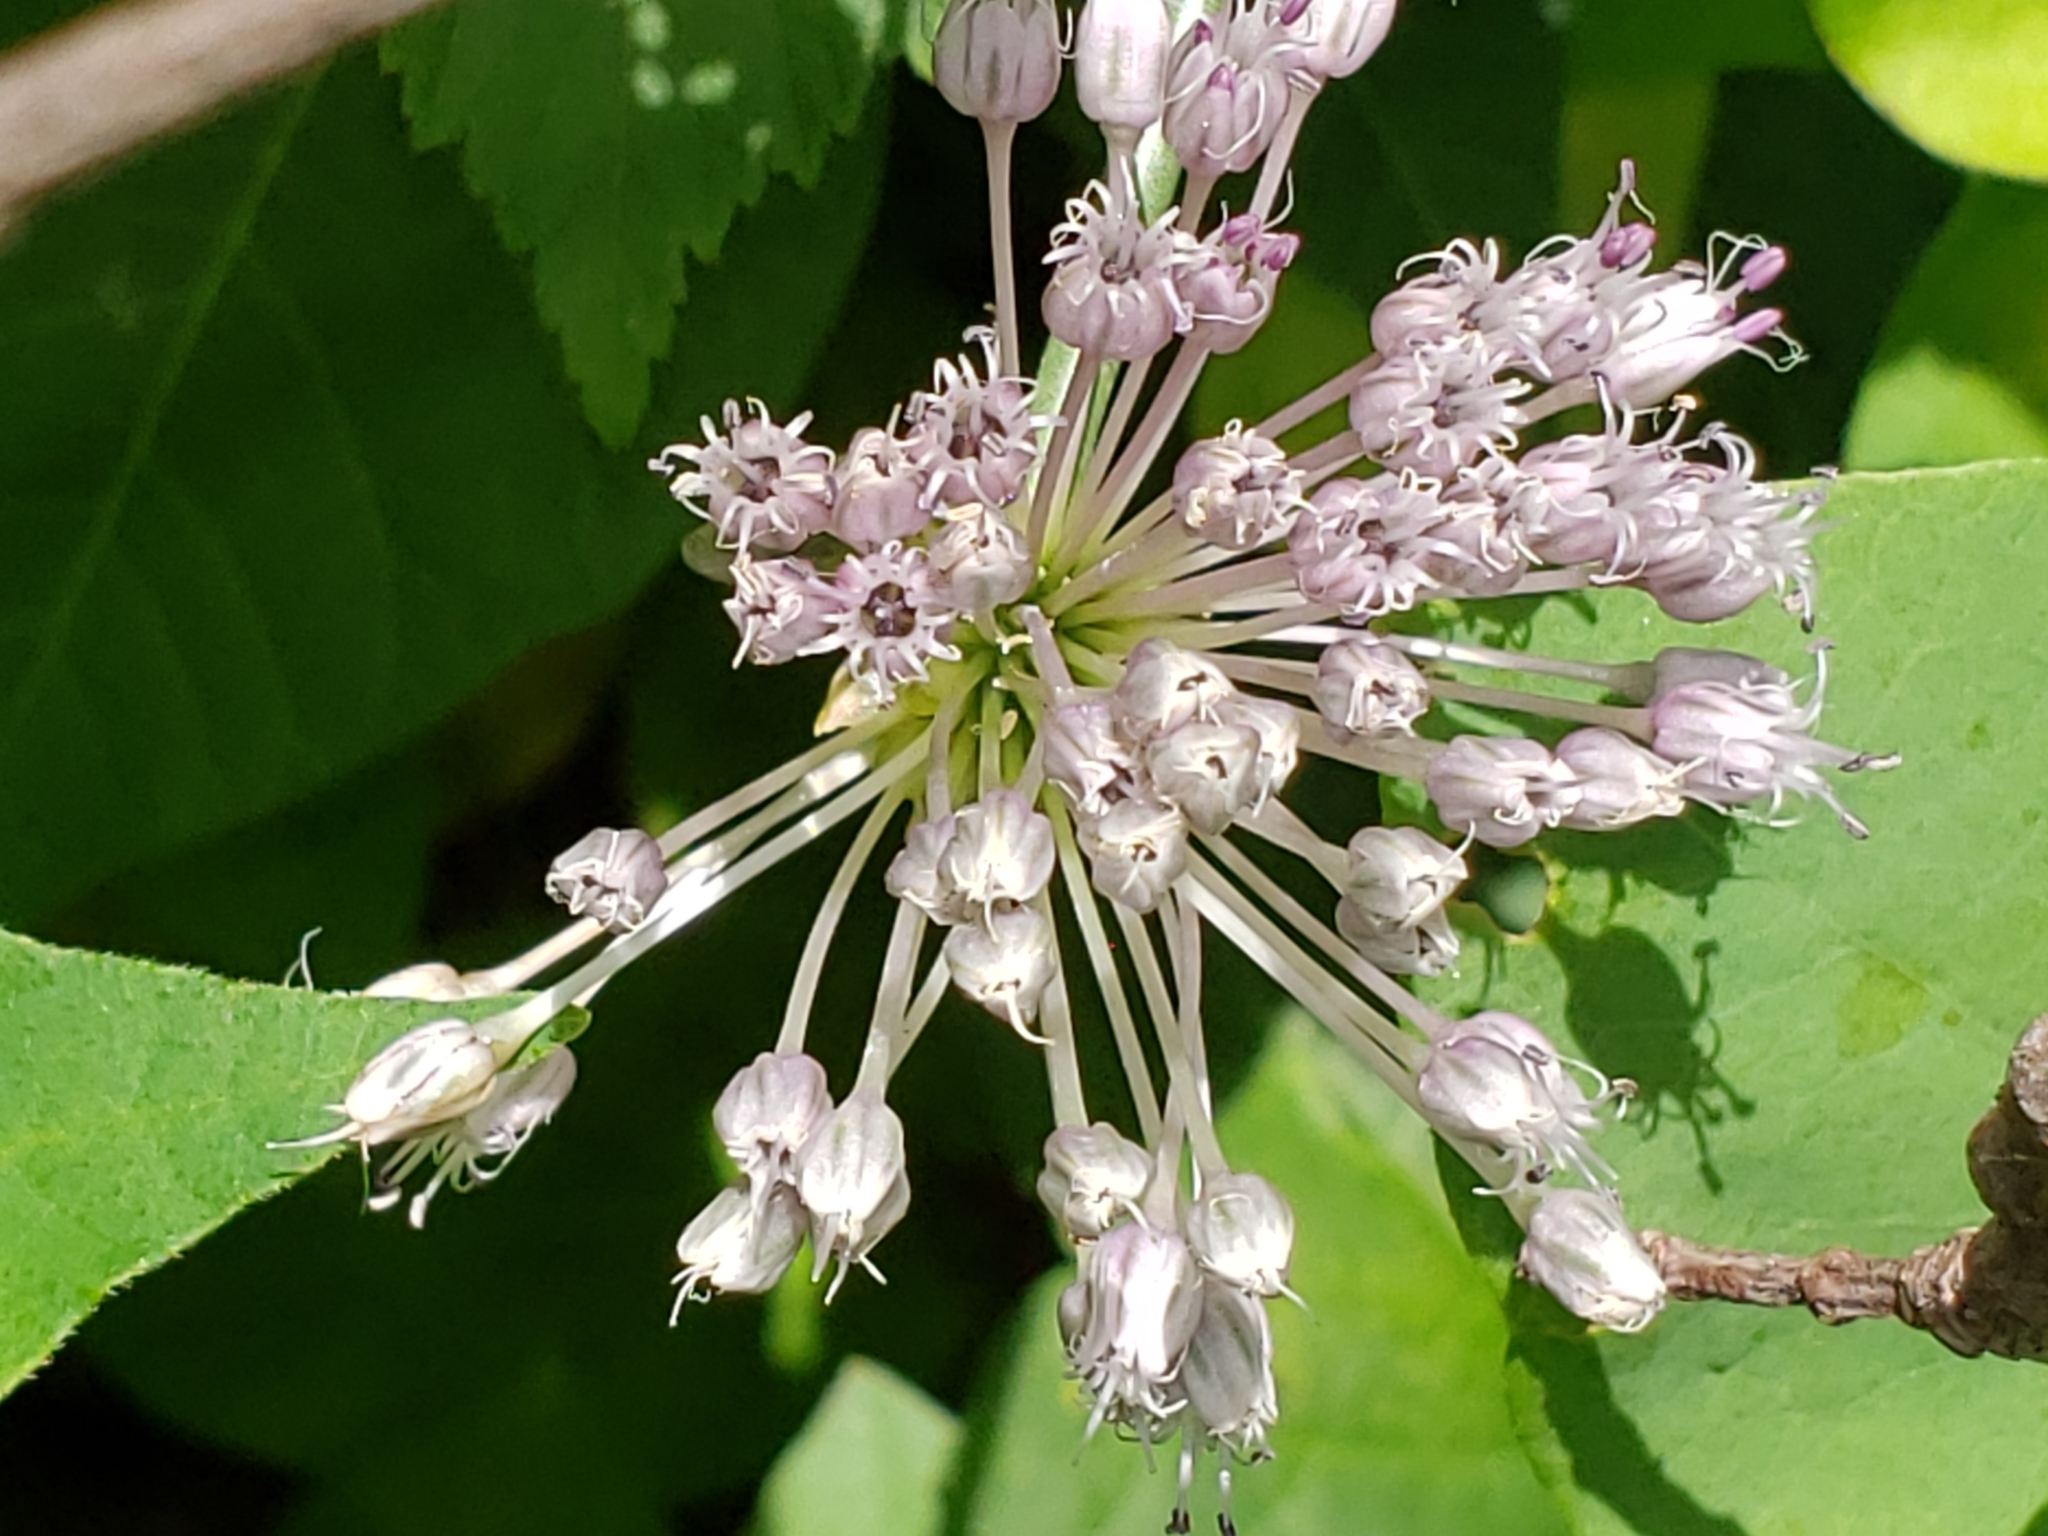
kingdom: Plantae
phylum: Tracheophyta
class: Liliopsida
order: Asparagales
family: Amaryllidaceae
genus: Allium
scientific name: Allium vineale
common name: Crow garlic
